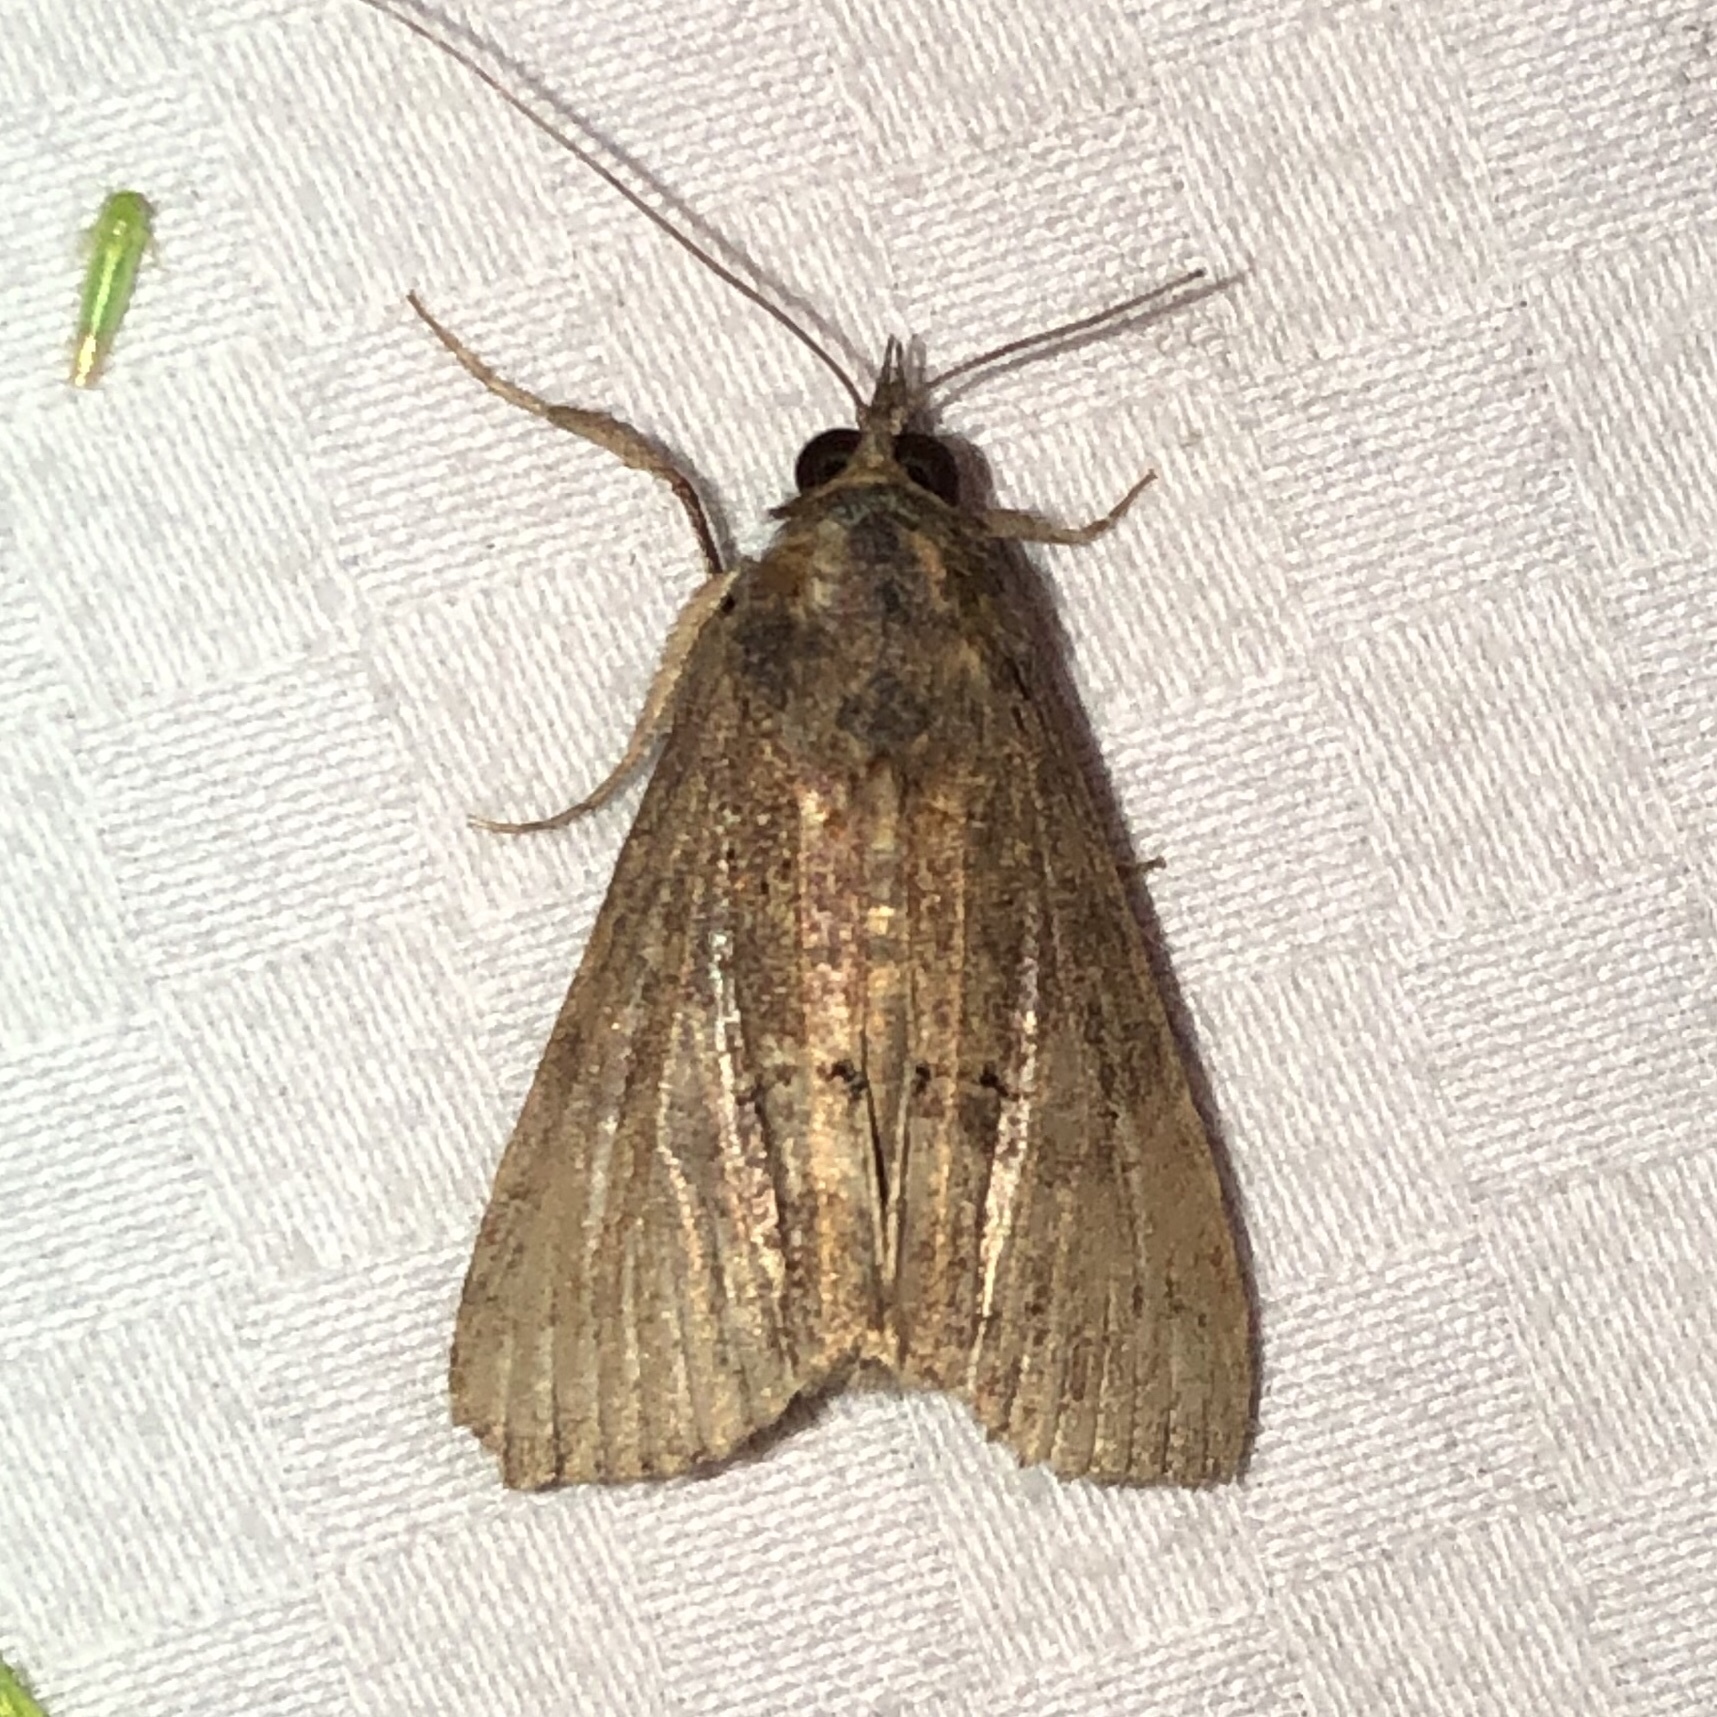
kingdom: Animalia
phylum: Arthropoda
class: Insecta
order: Lepidoptera
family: Erebidae
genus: Hypena
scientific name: Hypena scabra
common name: Green cloverworm
